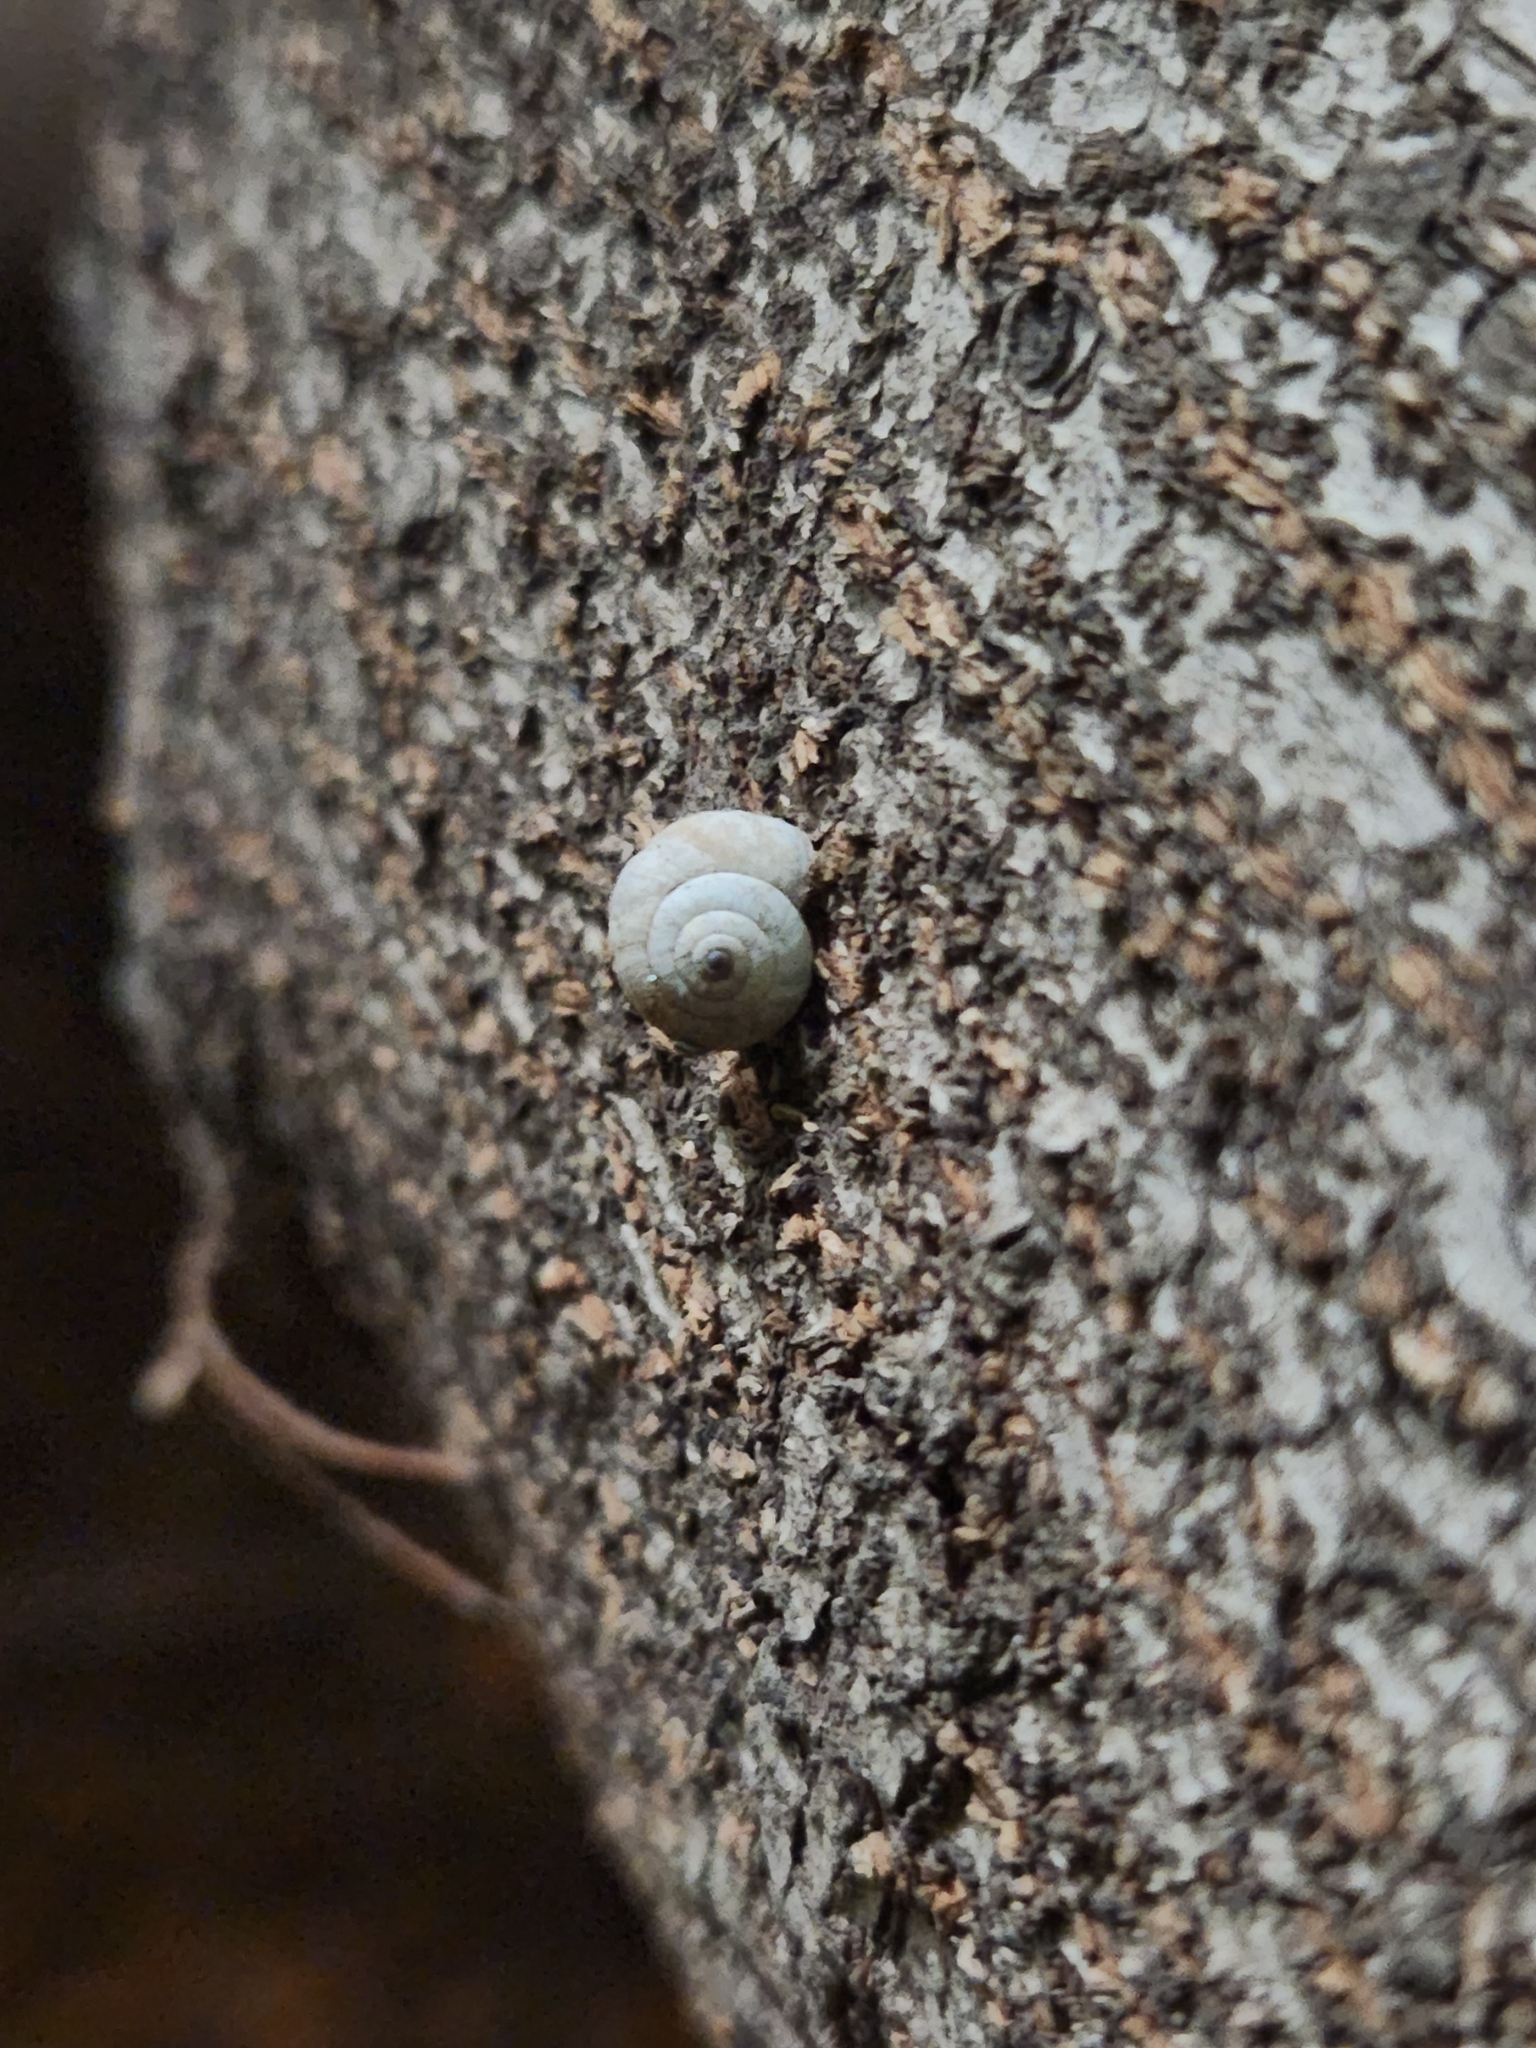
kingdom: Animalia
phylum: Mollusca
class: Gastropoda
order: Stylommatophora
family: Helicidae
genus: Theba
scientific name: Theba pisana
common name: White snail
